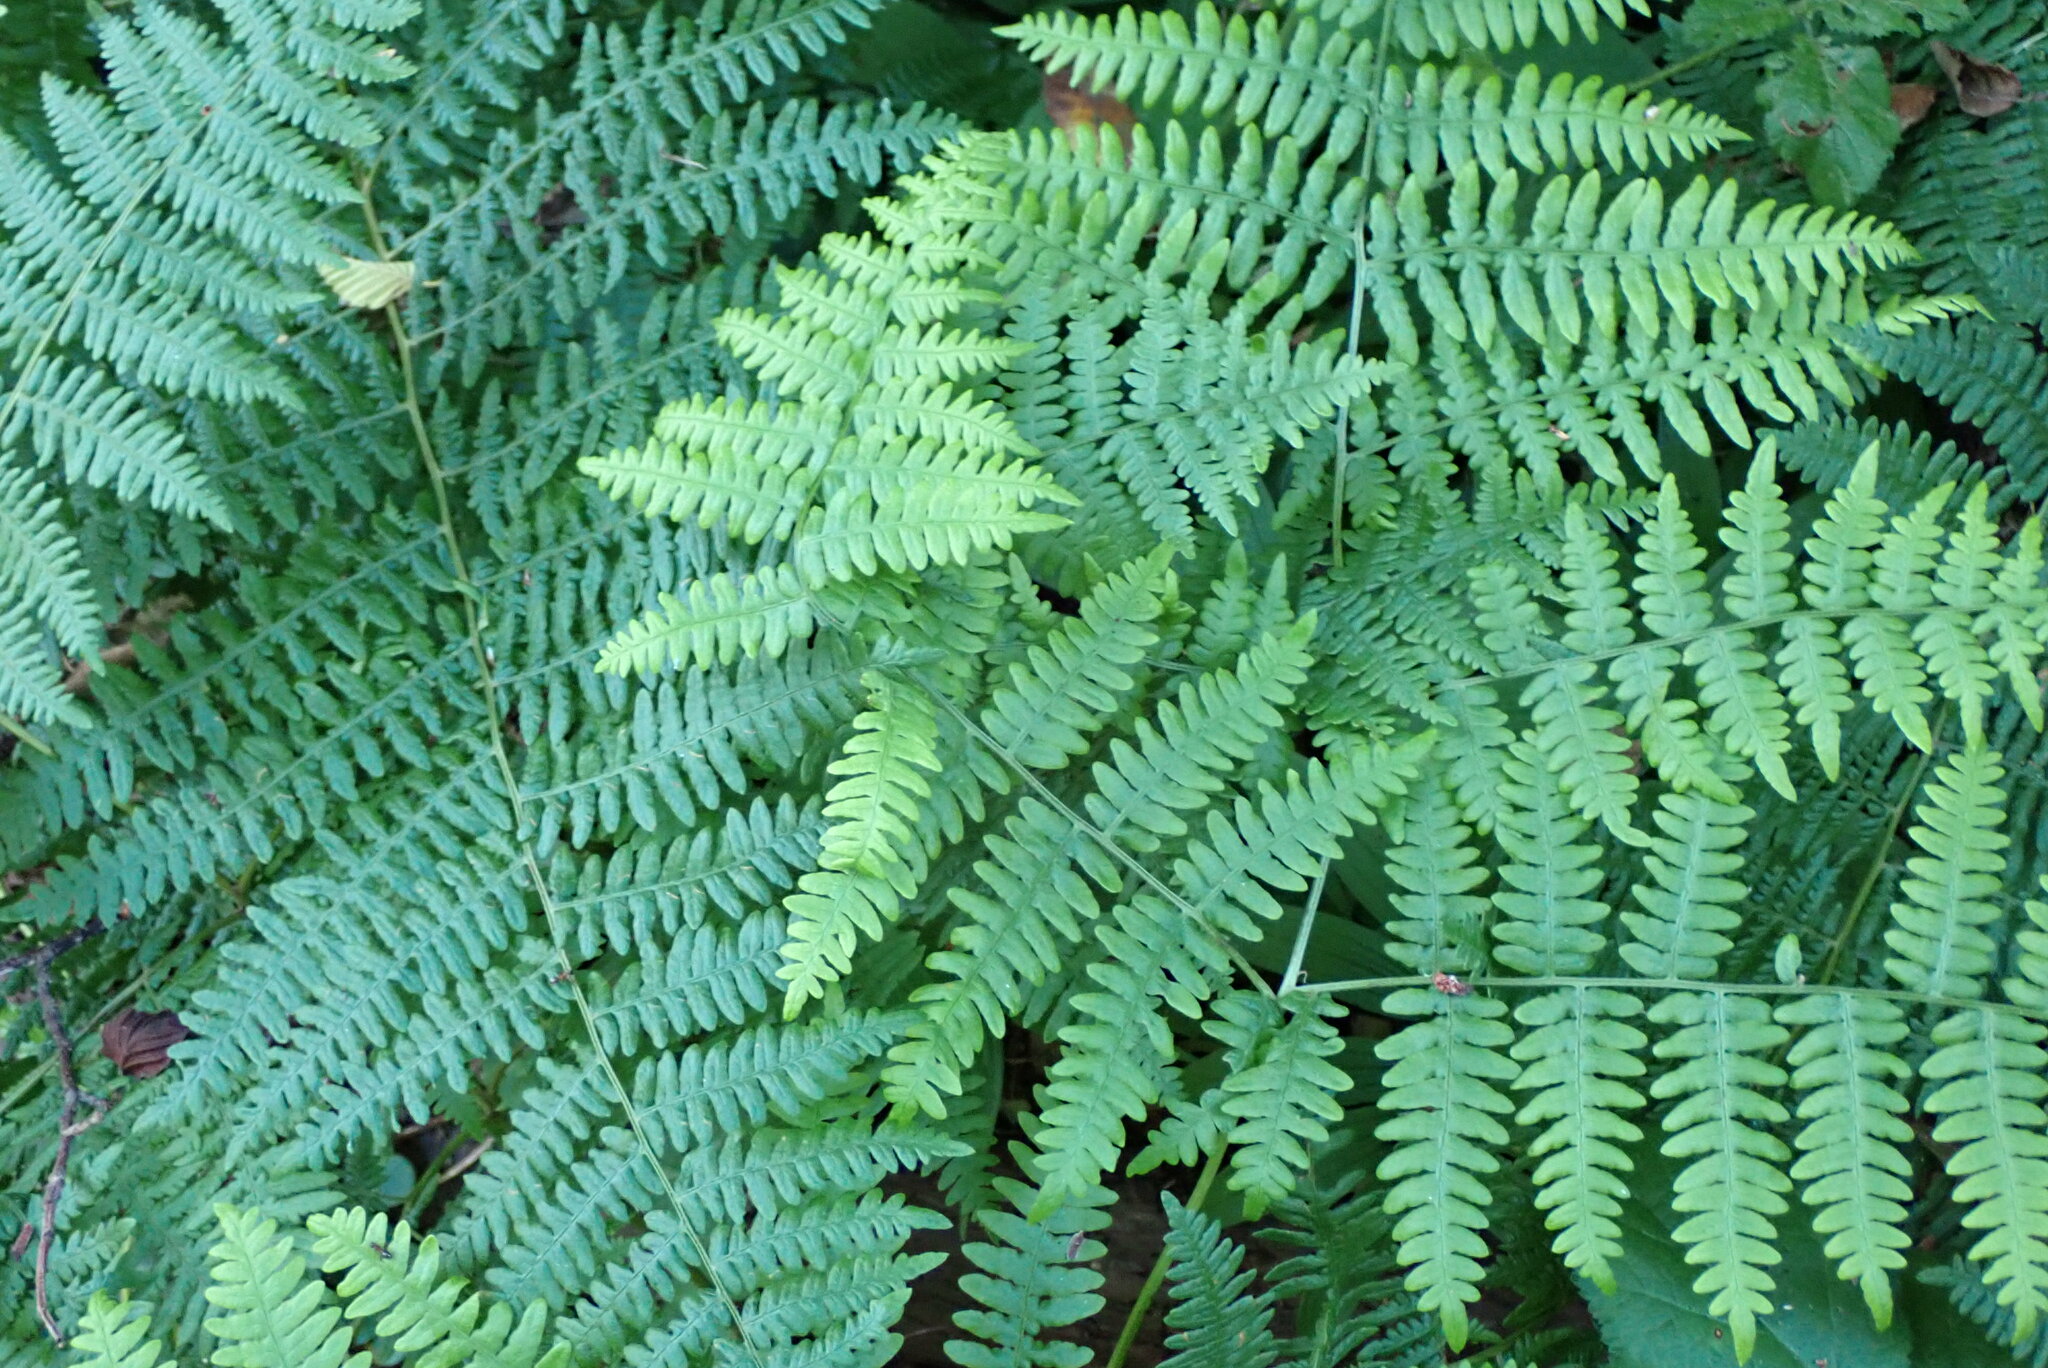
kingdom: Plantae
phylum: Tracheophyta
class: Polypodiopsida
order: Polypodiales
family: Dennstaedtiaceae
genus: Pteridium
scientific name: Pteridium aquilinum
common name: Bracken
